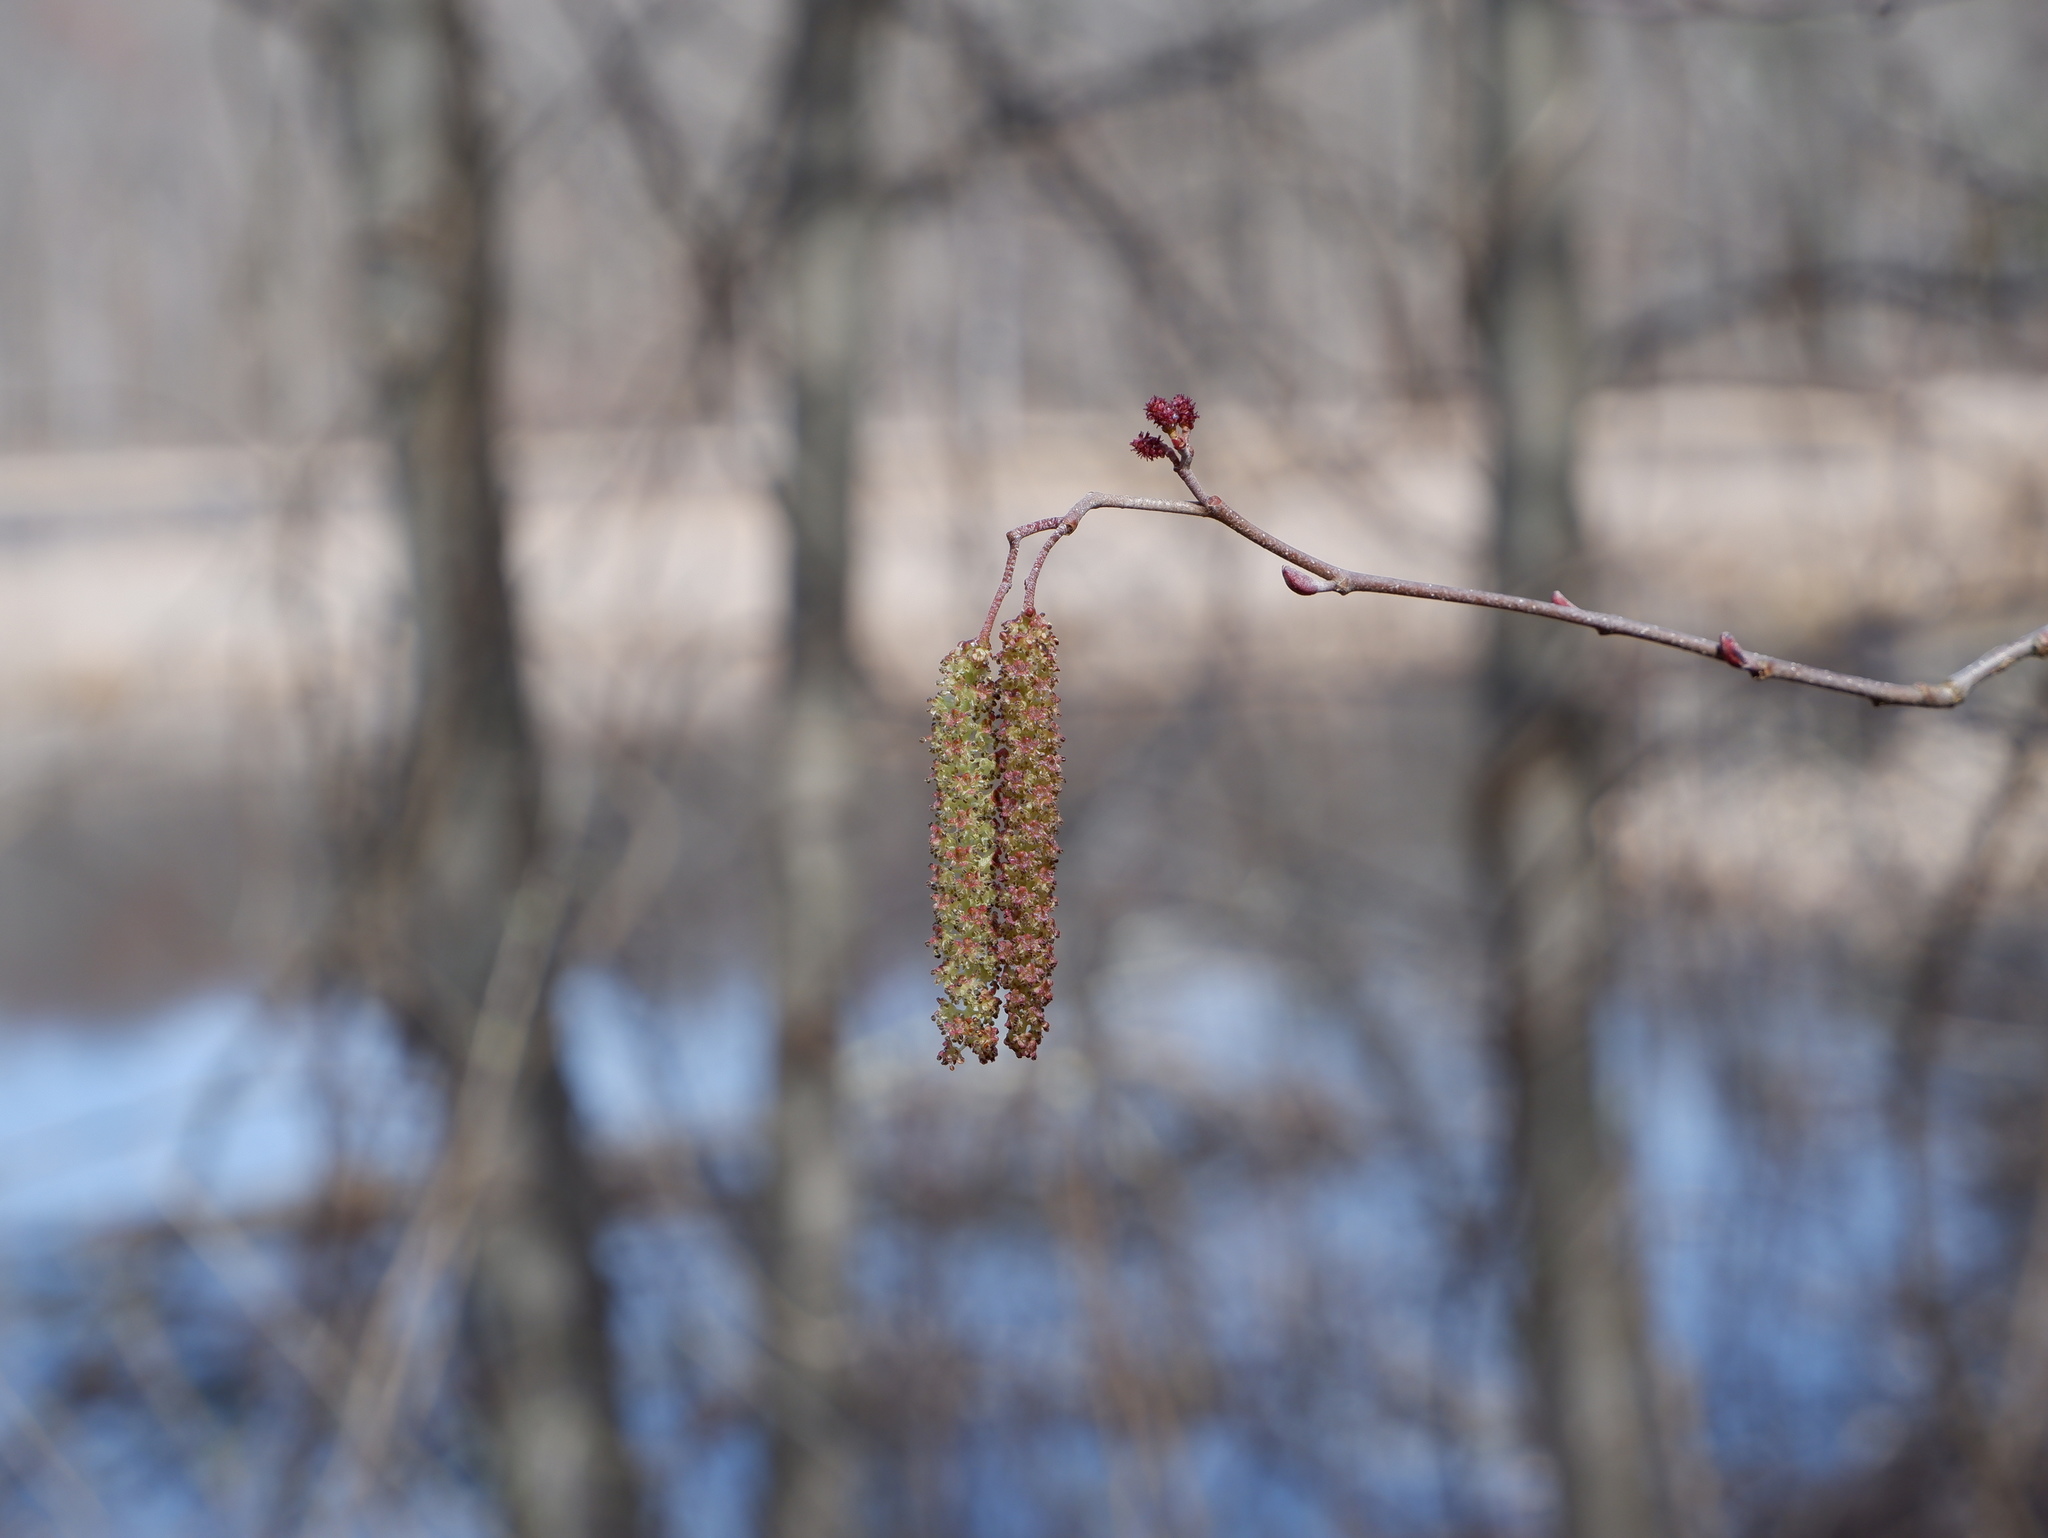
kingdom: Plantae
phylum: Tracheophyta
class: Magnoliopsida
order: Fagales
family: Betulaceae
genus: Alnus
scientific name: Alnus serrulata
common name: Hazel alder
